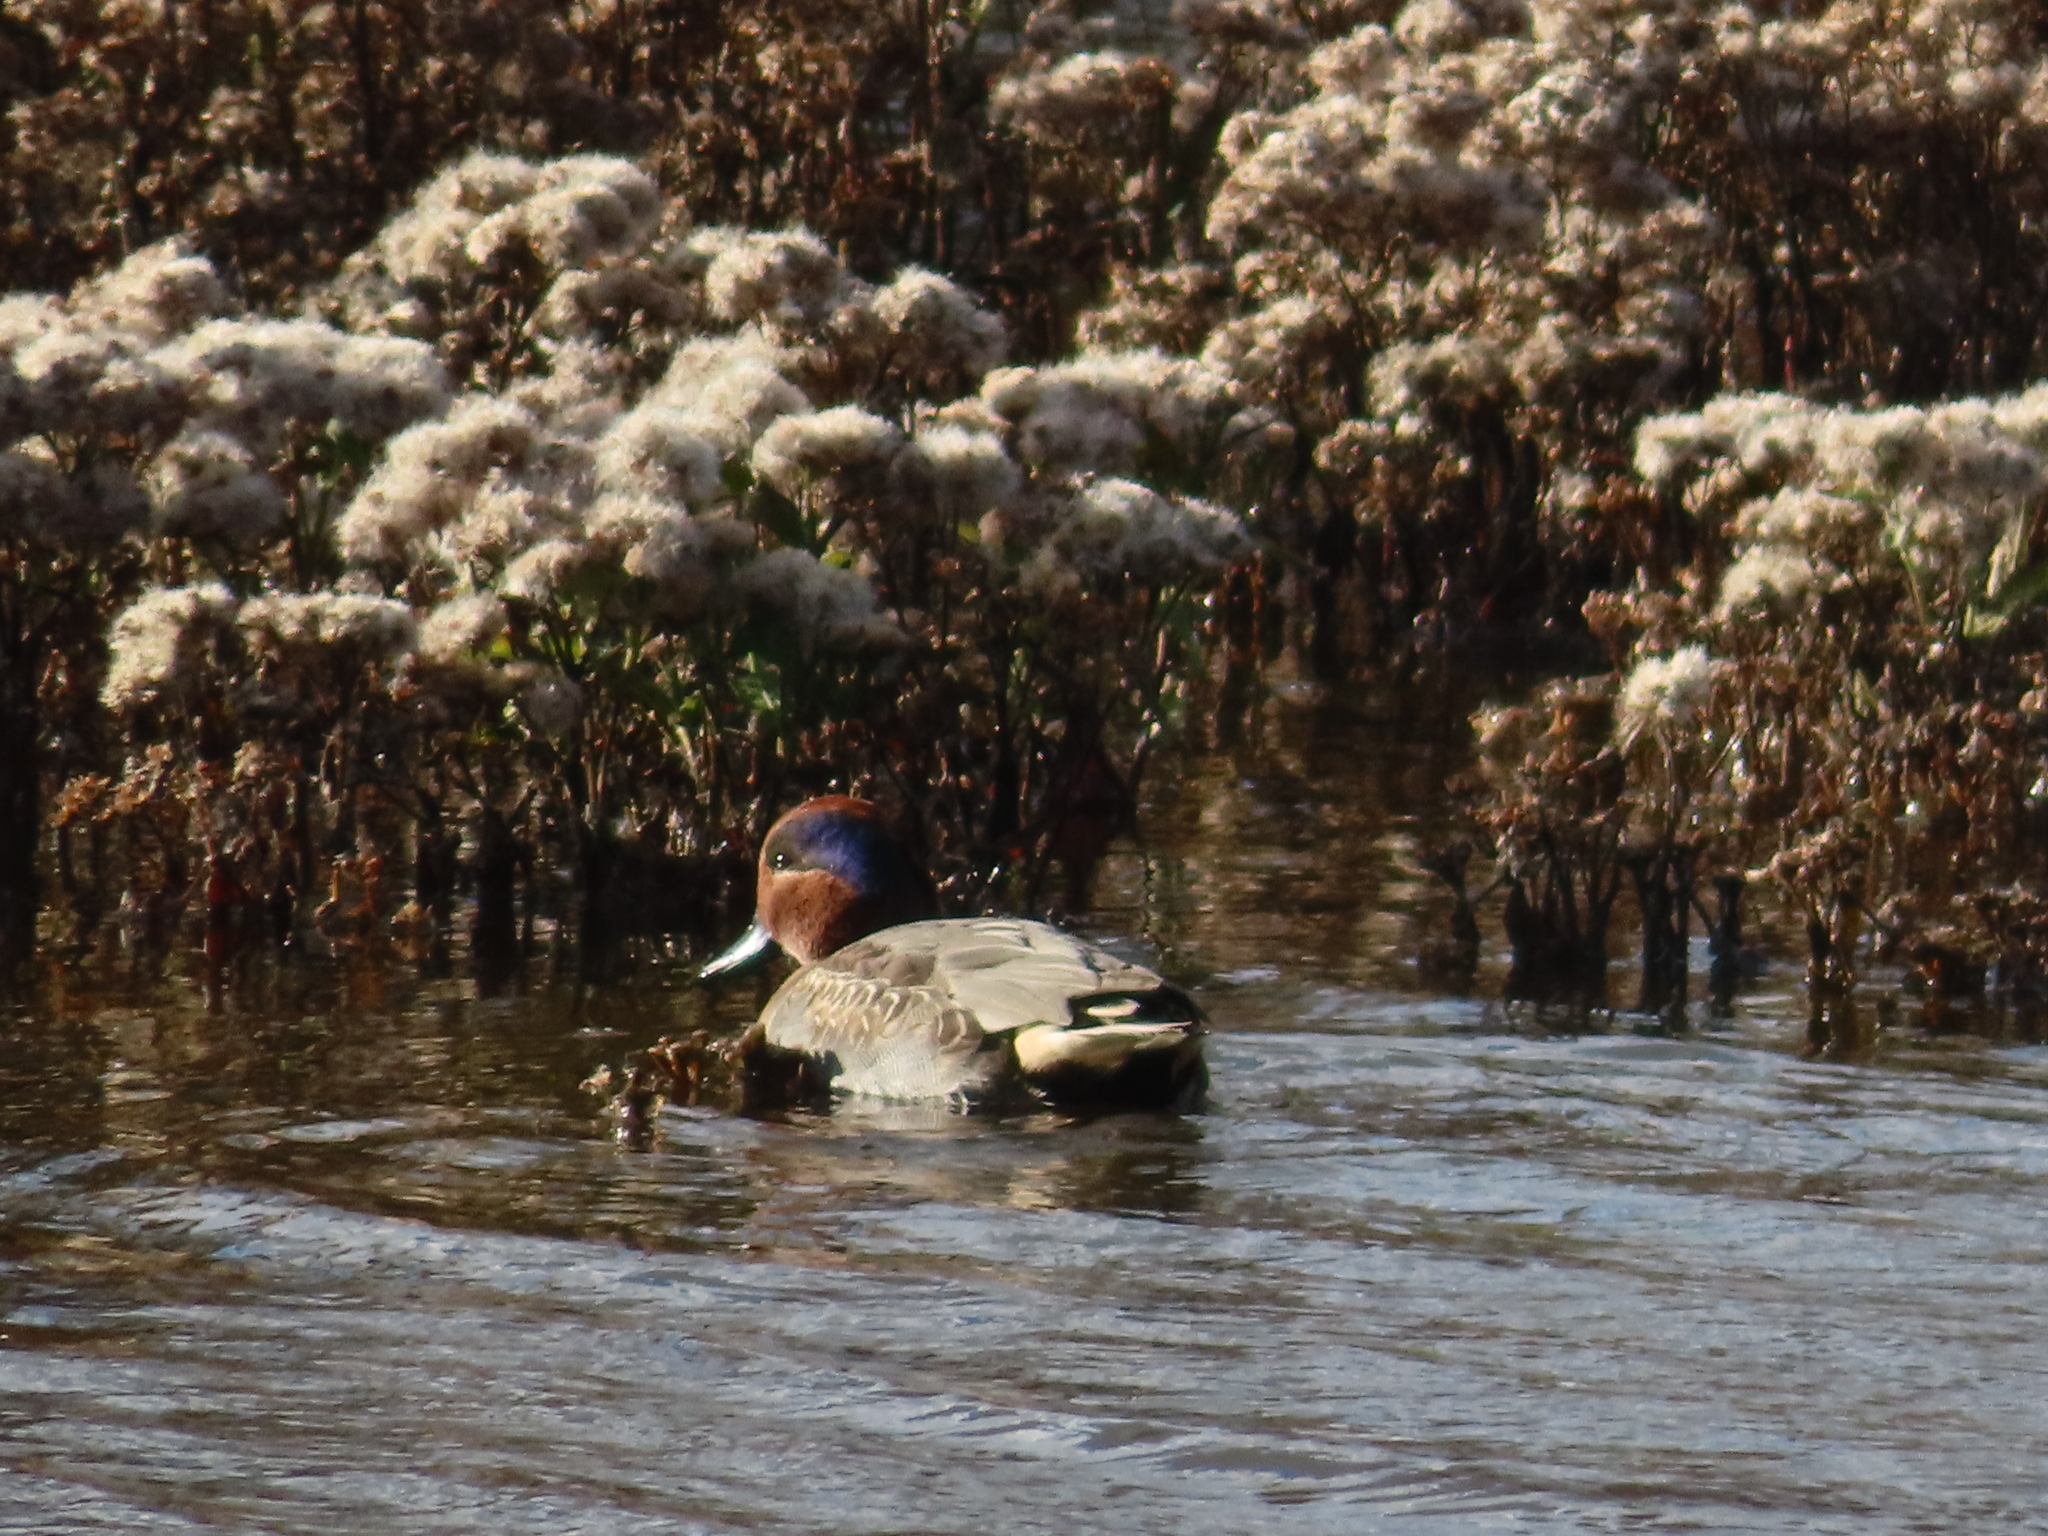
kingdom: Animalia
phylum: Chordata
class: Aves
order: Anseriformes
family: Anatidae
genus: Anas
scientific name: Anas crecca
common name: Eurasian teal
